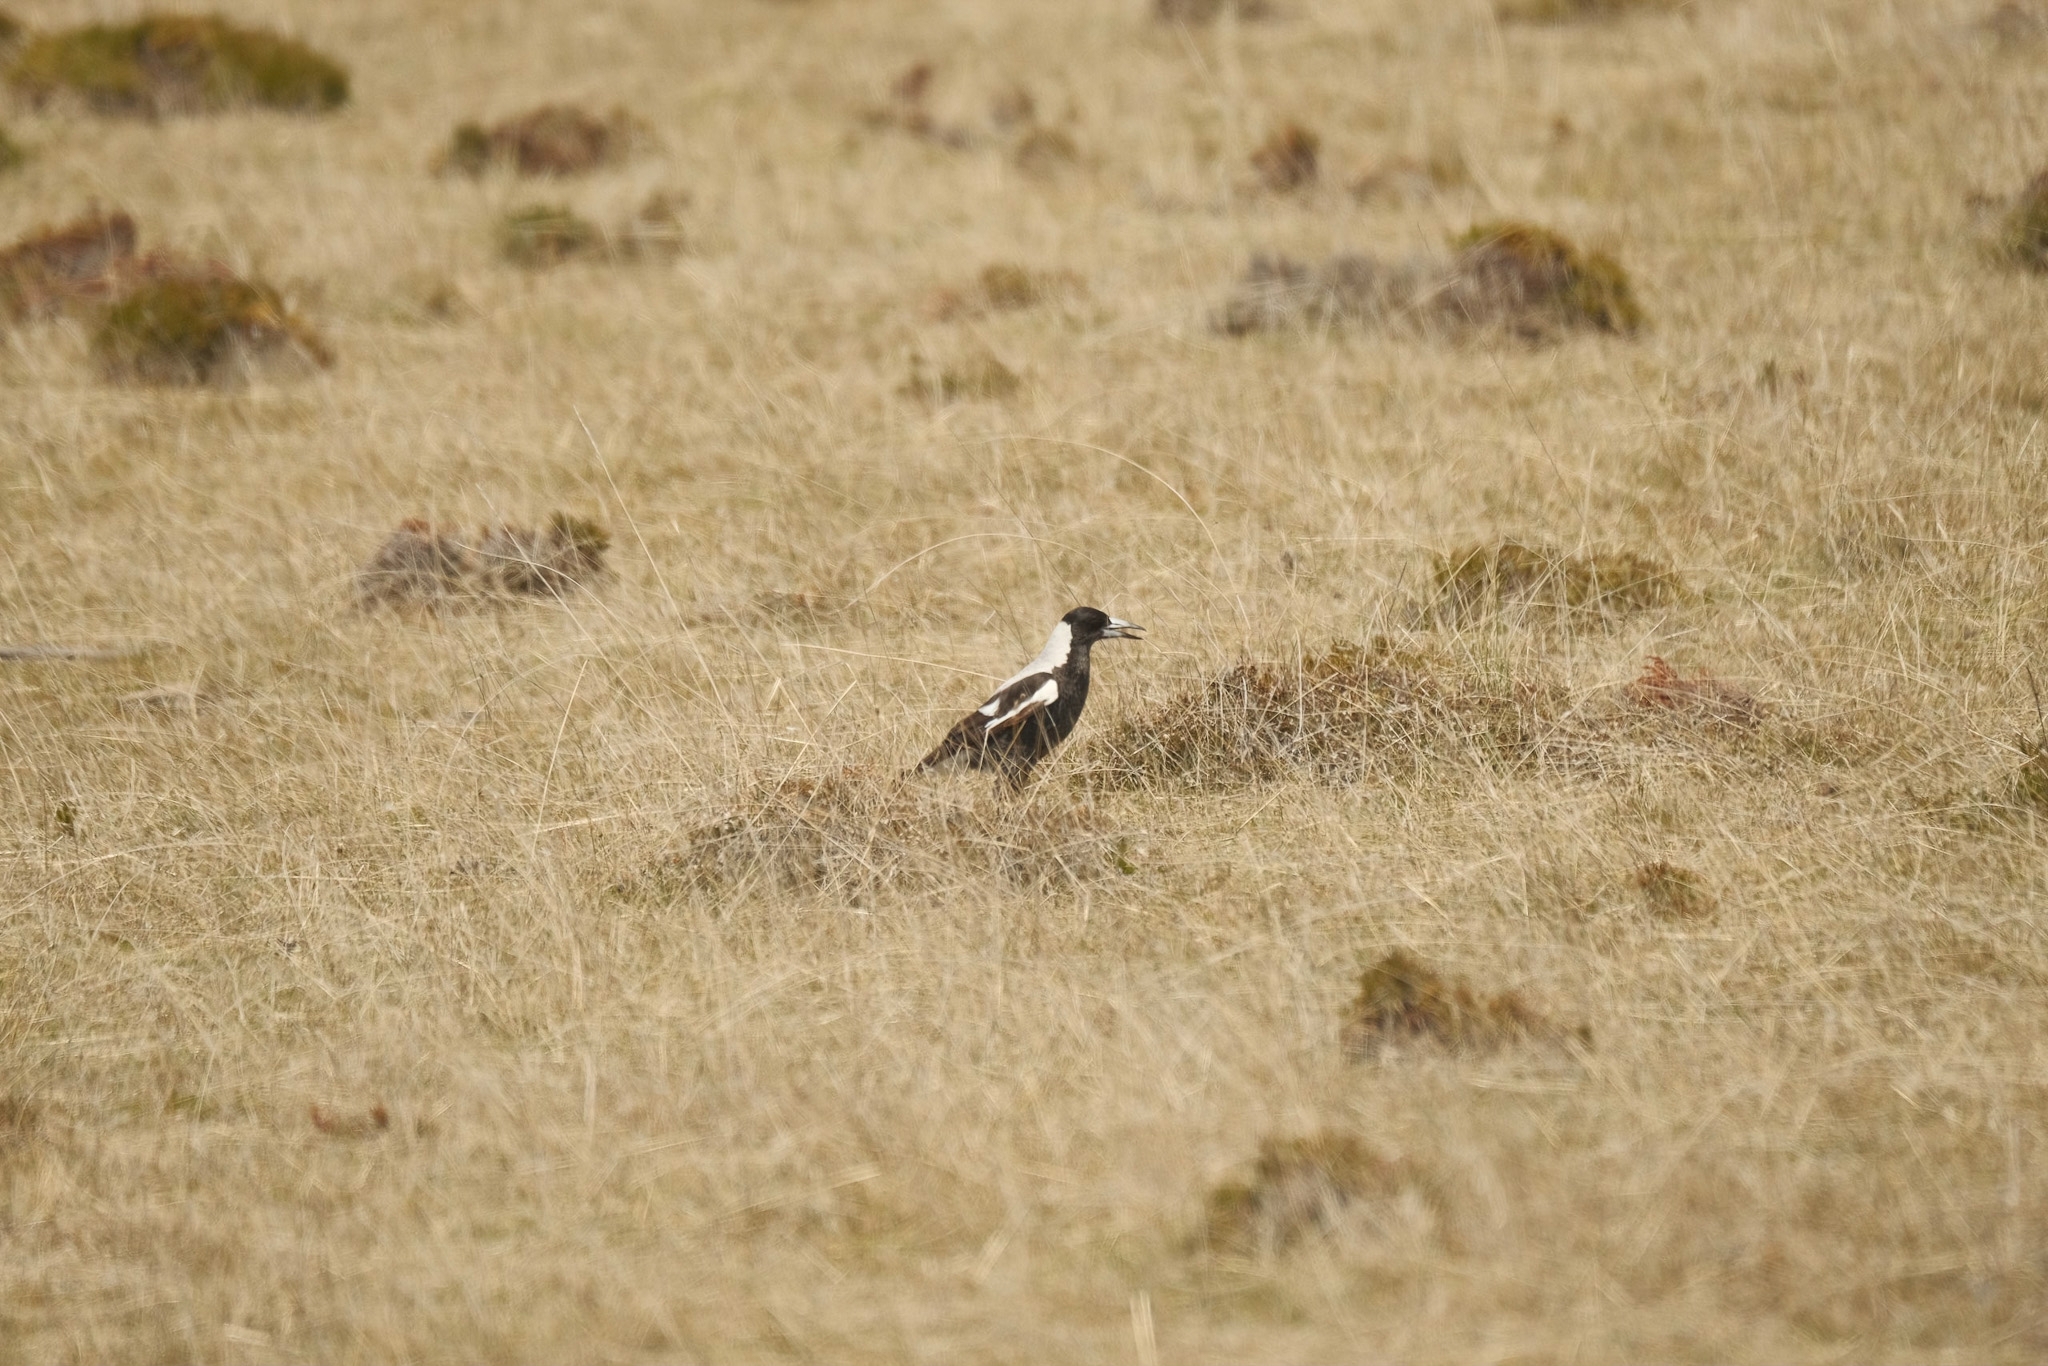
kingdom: Animalia
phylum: Chordata
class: Aves
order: Passeriformes
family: Cracticidae
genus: Gymnorhina
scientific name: Gymnorhina tibicen
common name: Australian magpie
